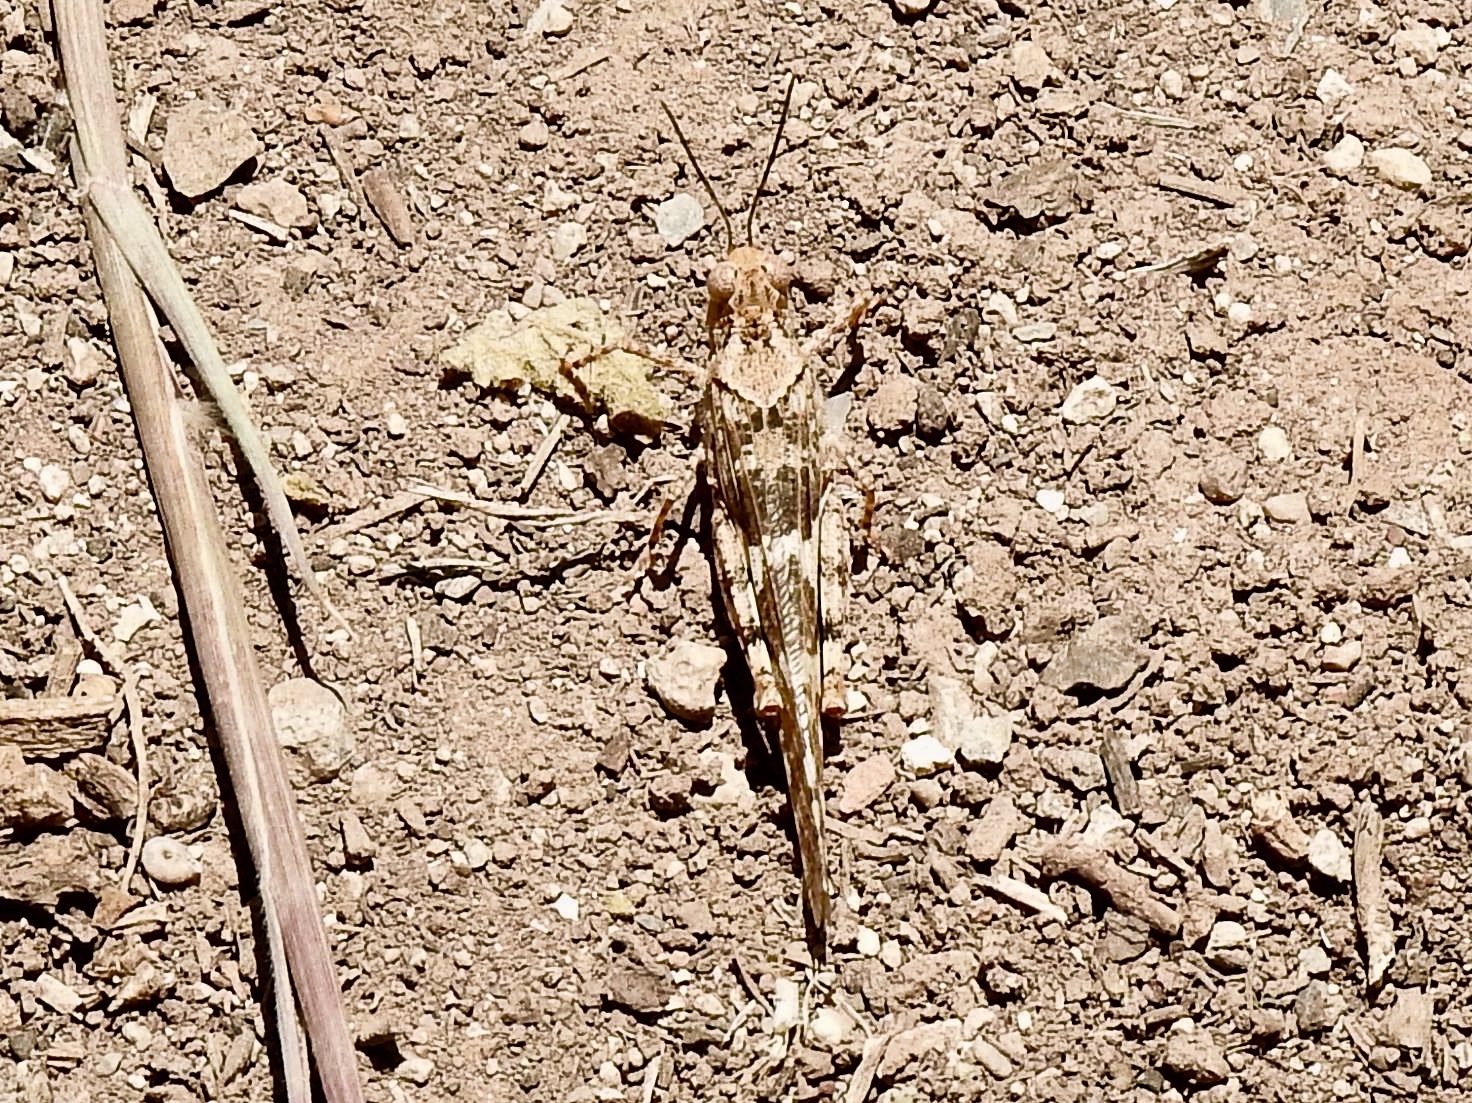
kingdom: Animalia
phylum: Arthropoda
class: Insecta
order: Orthoptera
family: Acrididae
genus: Trimerotropis
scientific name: Trimerotropis pallidipennis
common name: Pallid-winged grasshopper
